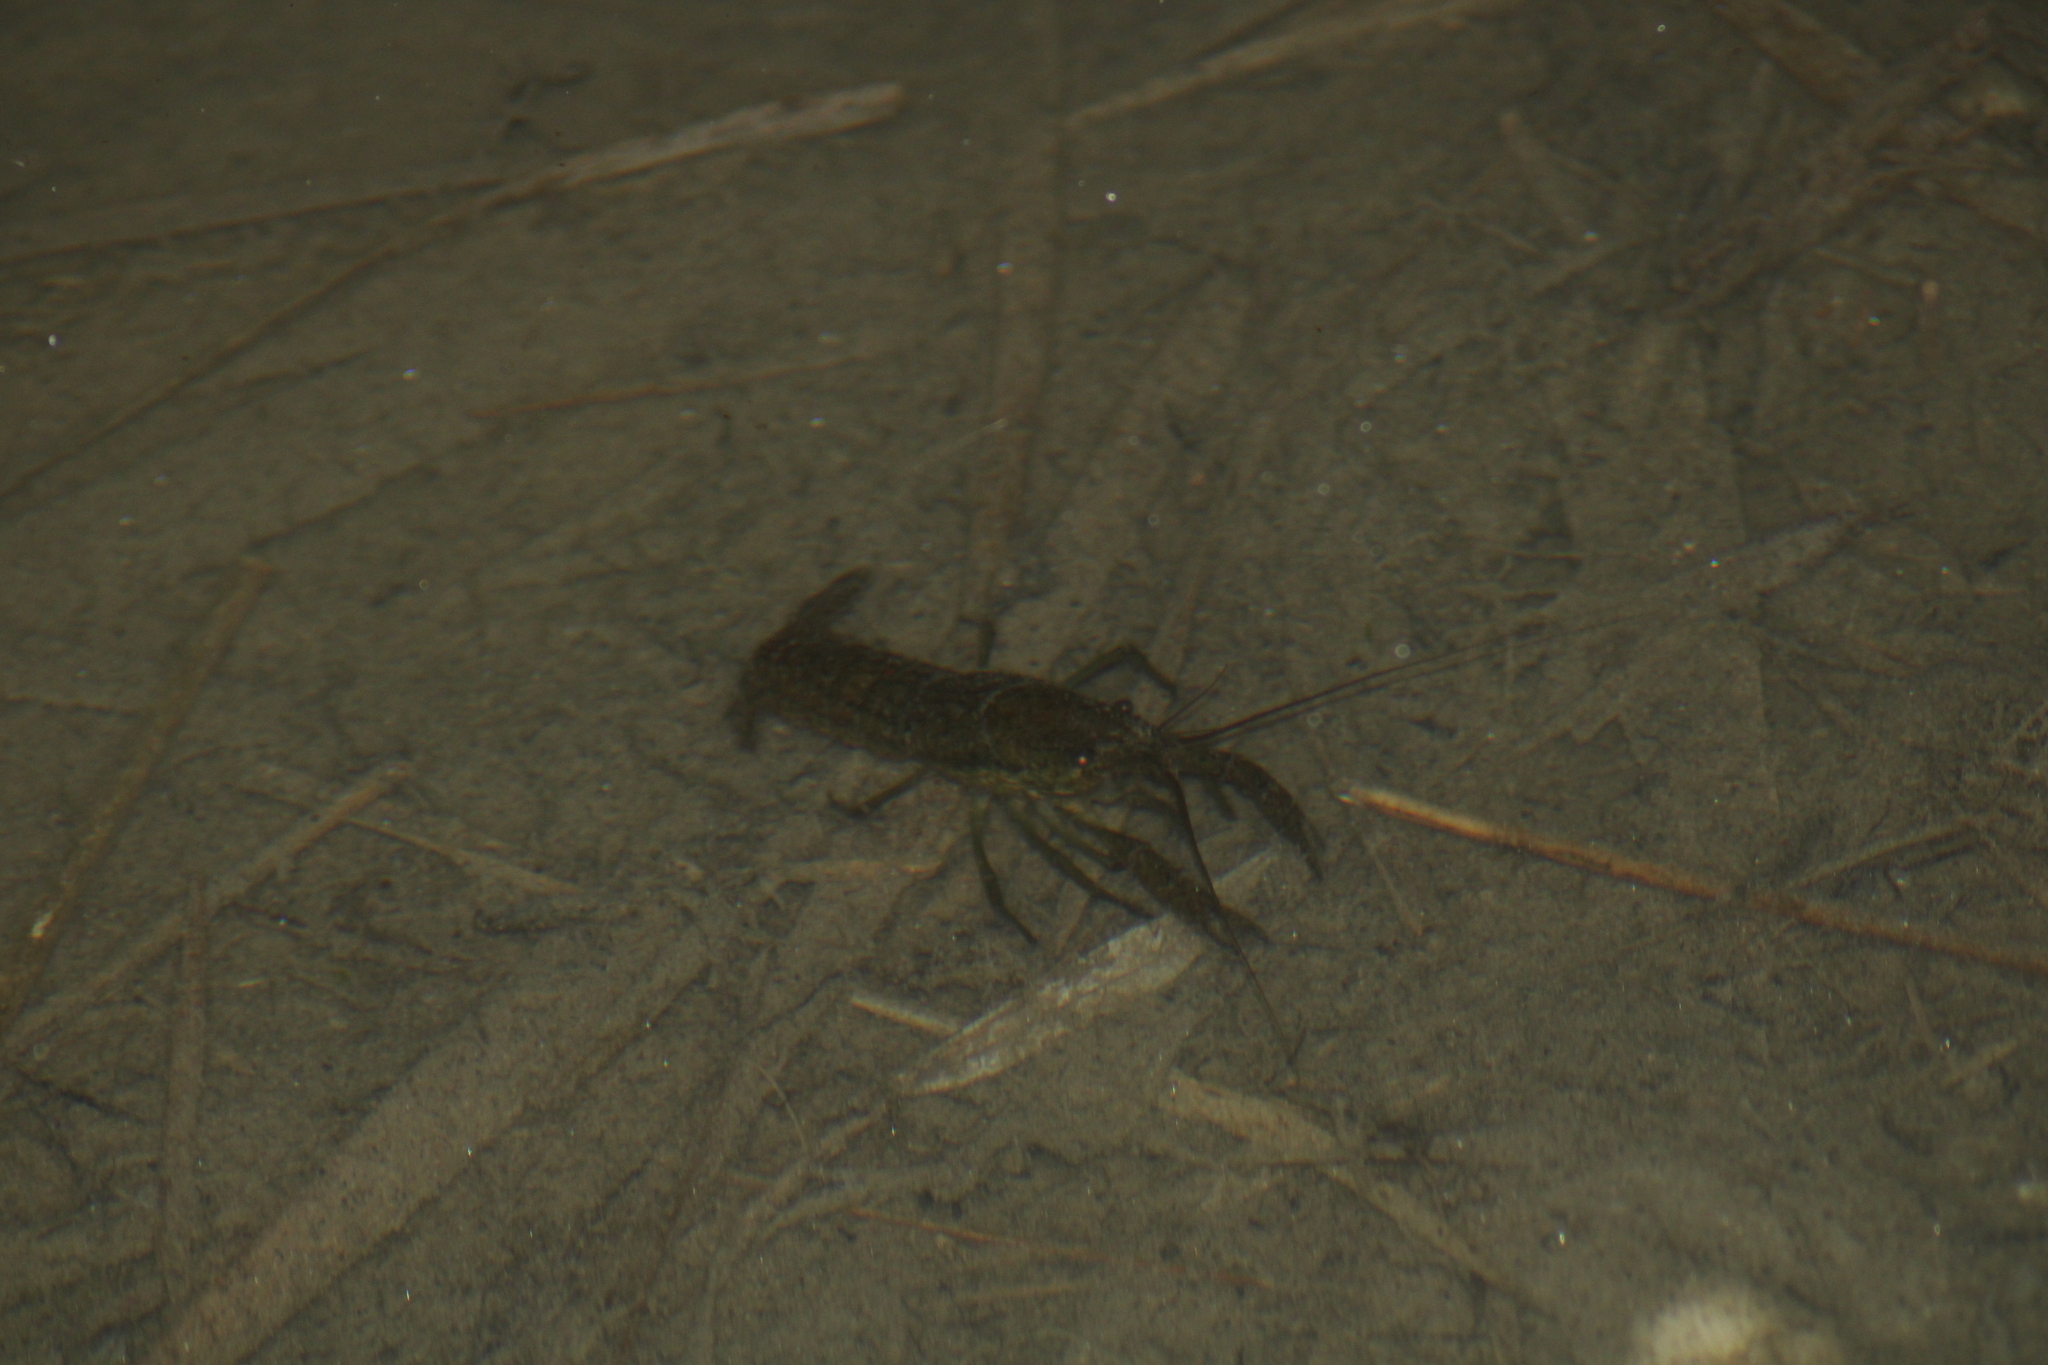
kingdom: Animalia
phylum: Arthropoda
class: Malacostraca
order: Decapoda
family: Cambaridae
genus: Procambarus
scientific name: Procambarus virginalis
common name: Marbled crayfish
